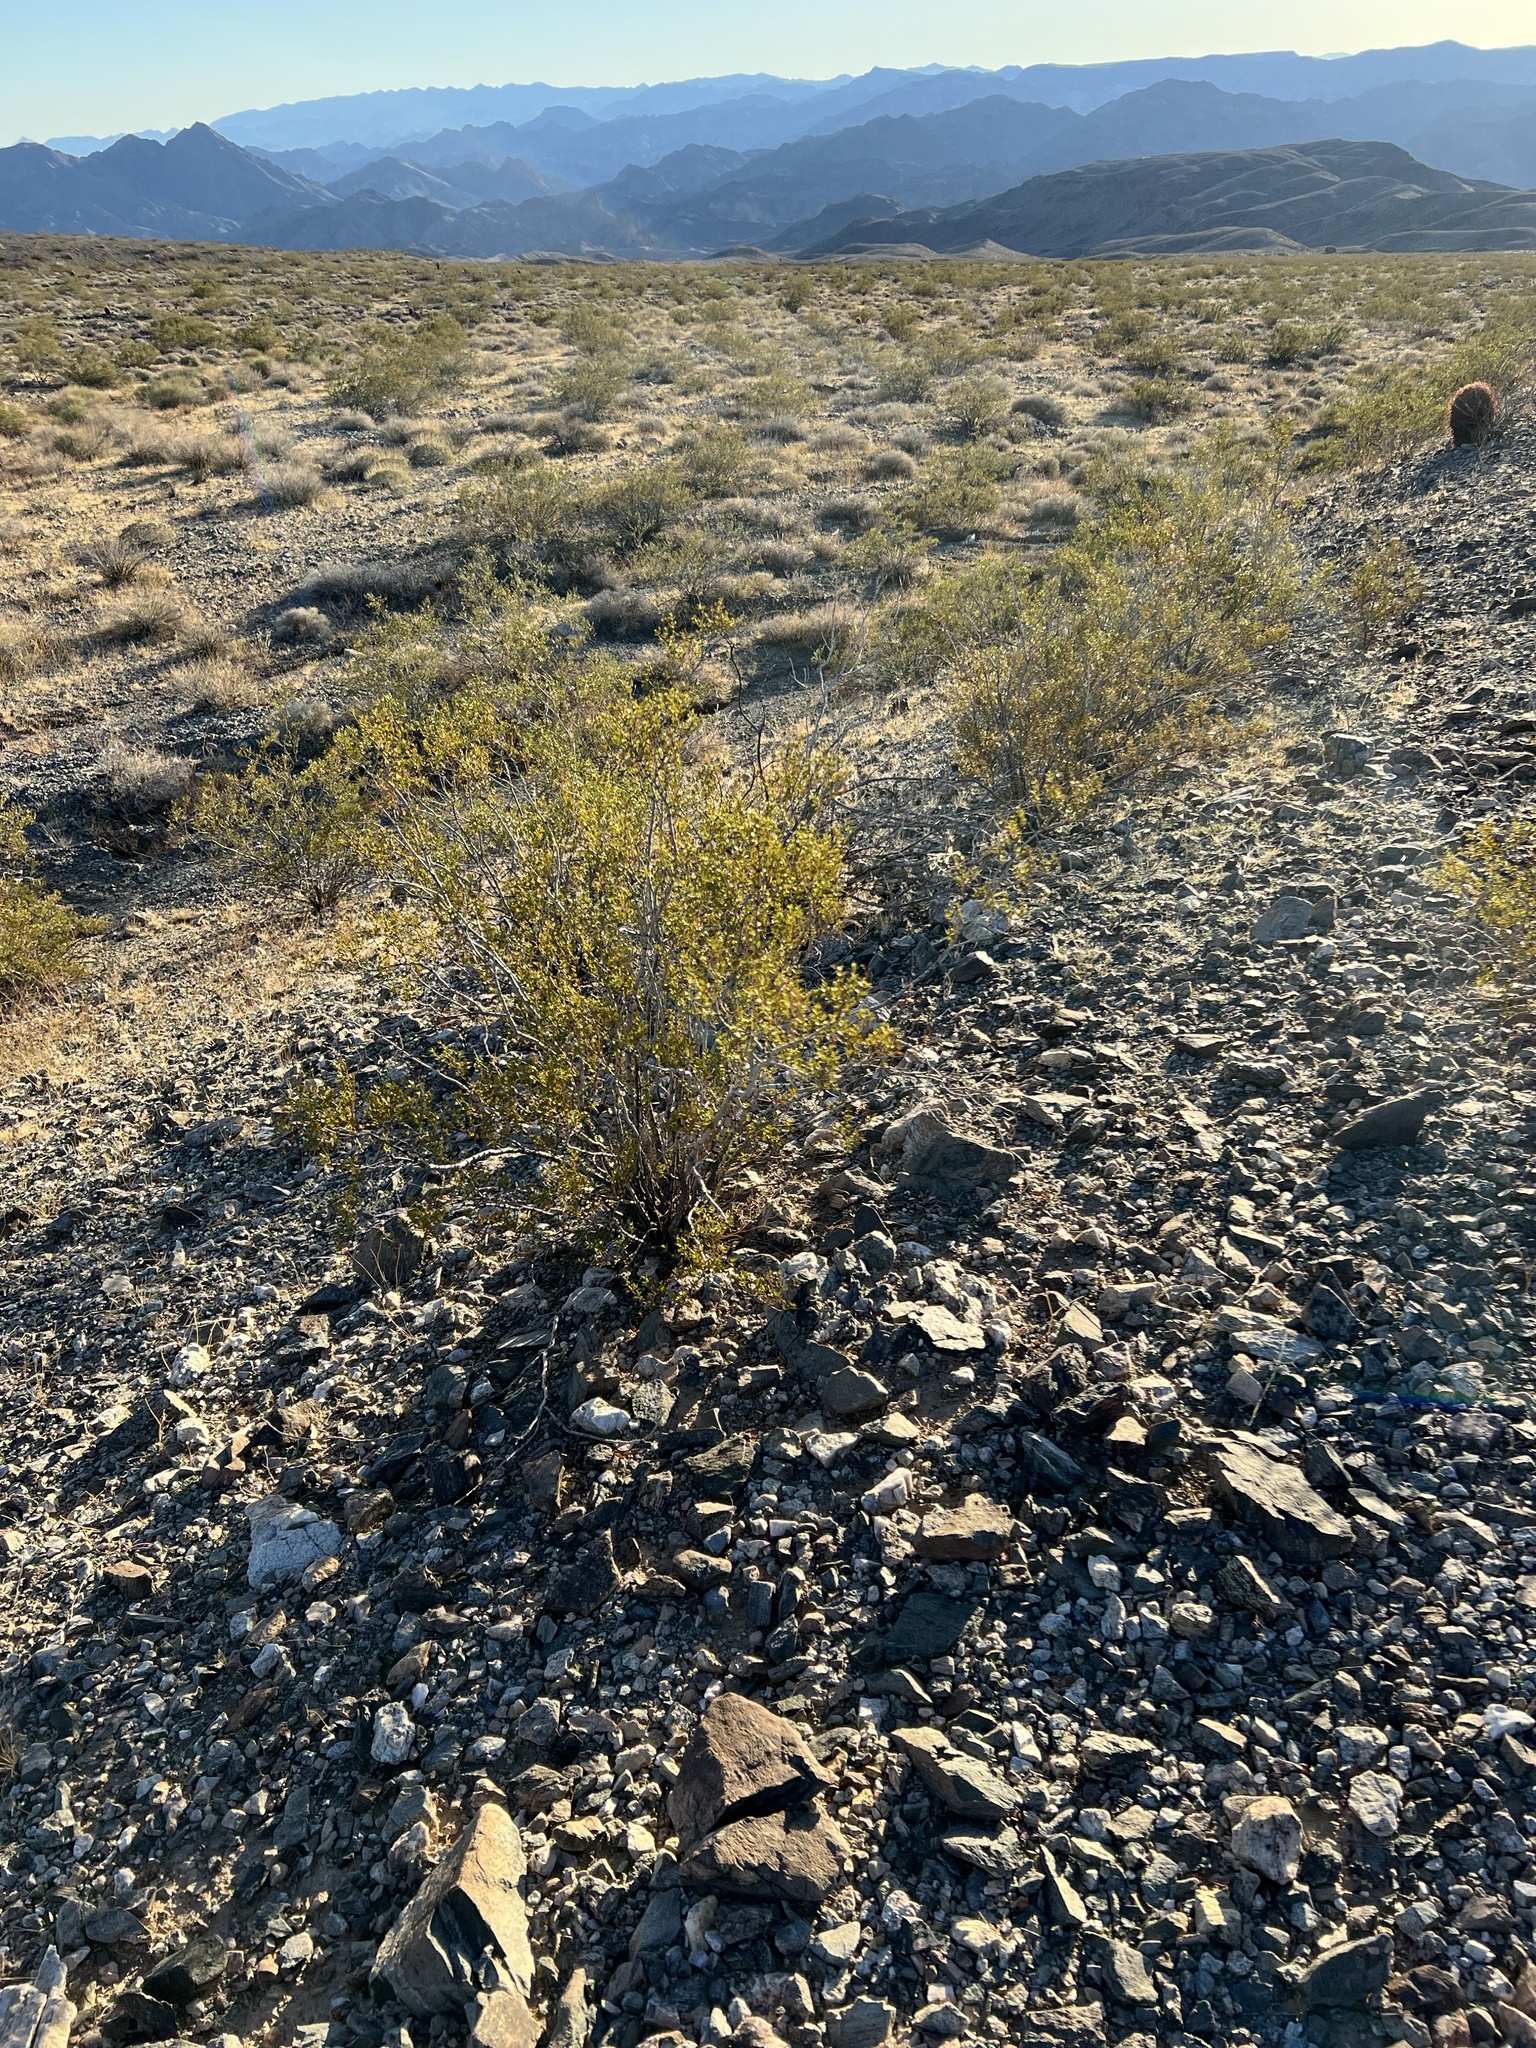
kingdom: Plantae
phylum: Tracheophyta
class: Magnoliopsida
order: Zygophyllales
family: Zygophyllaceae
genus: Larrea
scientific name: Larrea tridentata
